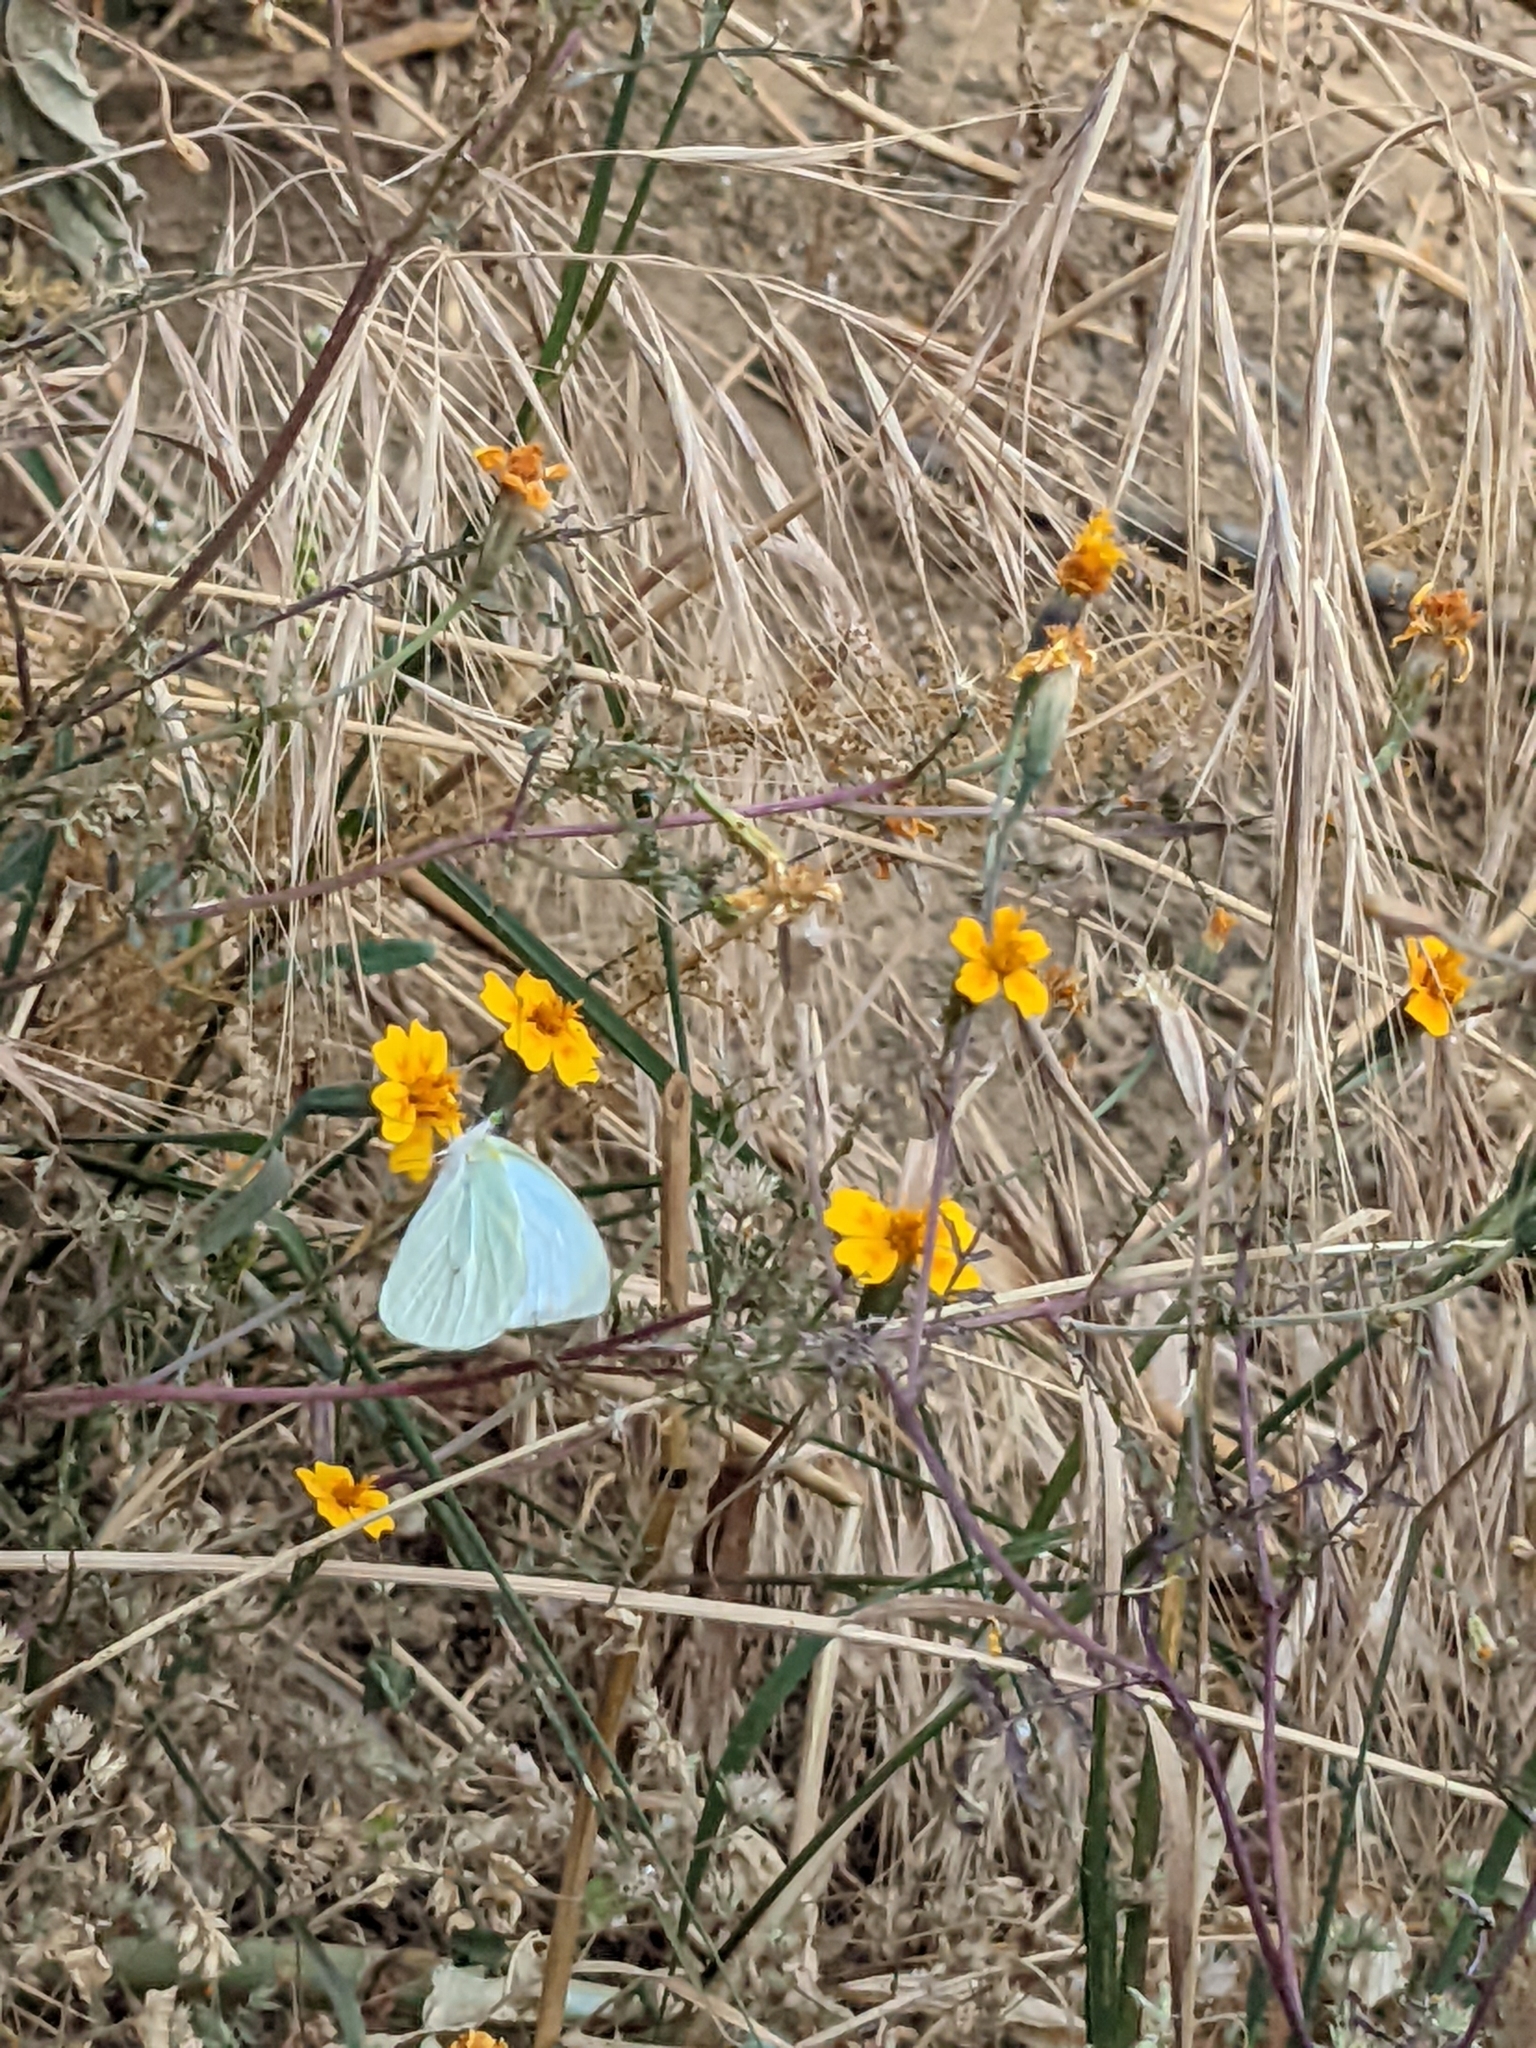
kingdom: Animalia
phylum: Arthropoda
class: Insecta
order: Lepidoptera
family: Pieridae
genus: Leptophobia
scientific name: Leptophobia aripa
